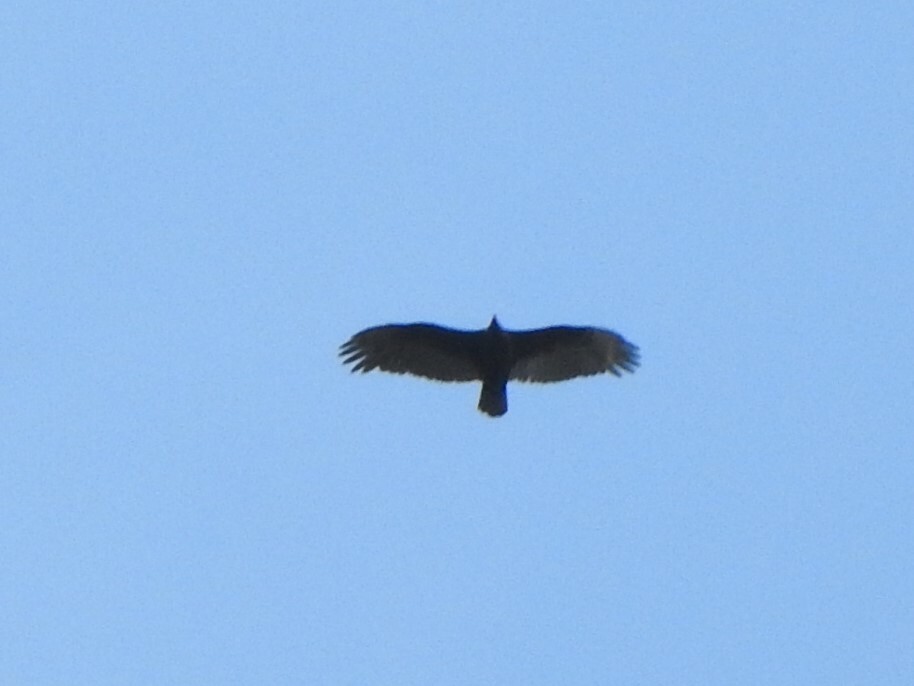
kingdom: Animalia
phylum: Chordata
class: Aves
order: Accipitriformes
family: Cathartidae
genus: Cathartes
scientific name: Cathartes aura
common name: Turkey vulture
